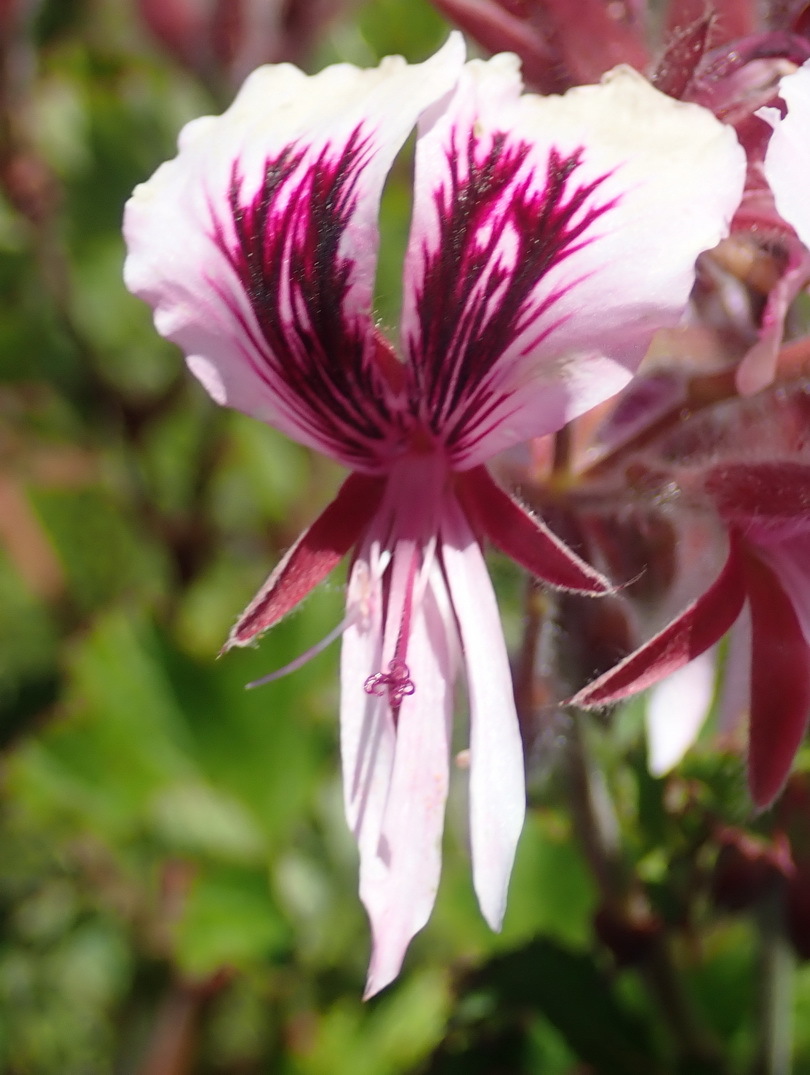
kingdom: Plantae
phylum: Tracheophyta
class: Magnoliopsida
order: Geraniales
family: Geraniaceae
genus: Pelargonium
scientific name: Pelargonium cordifolium
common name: Heart-leaf pelargonium
